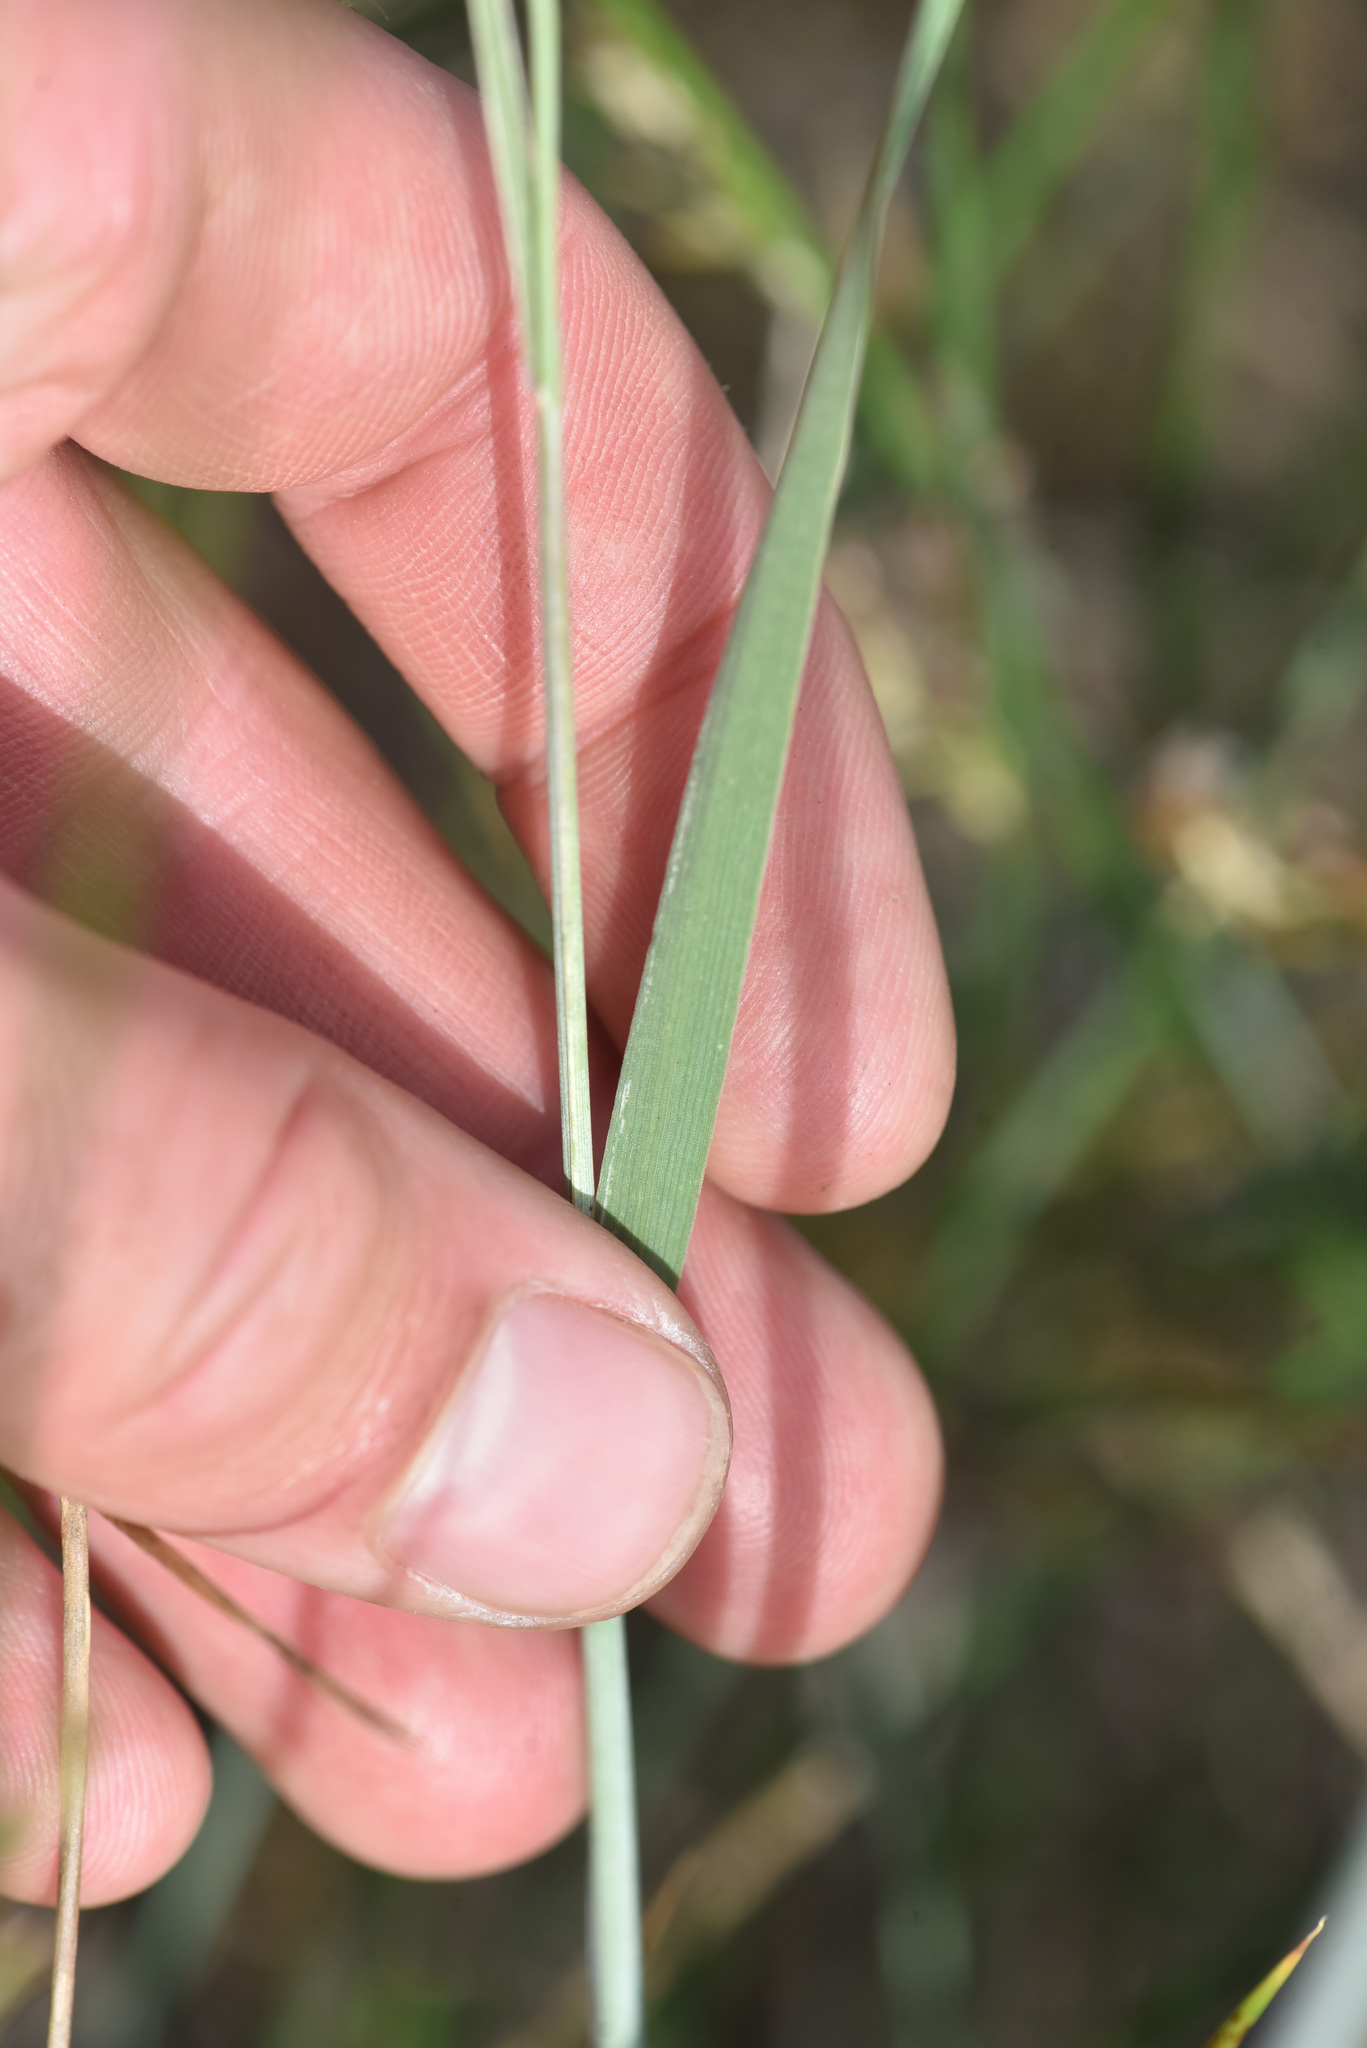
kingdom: Plantae
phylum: Tracheophyta
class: Liliopsida
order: Poales
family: Poaceae
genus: Hordeum
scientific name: Hordeum jubatum
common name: Foxtail barley
